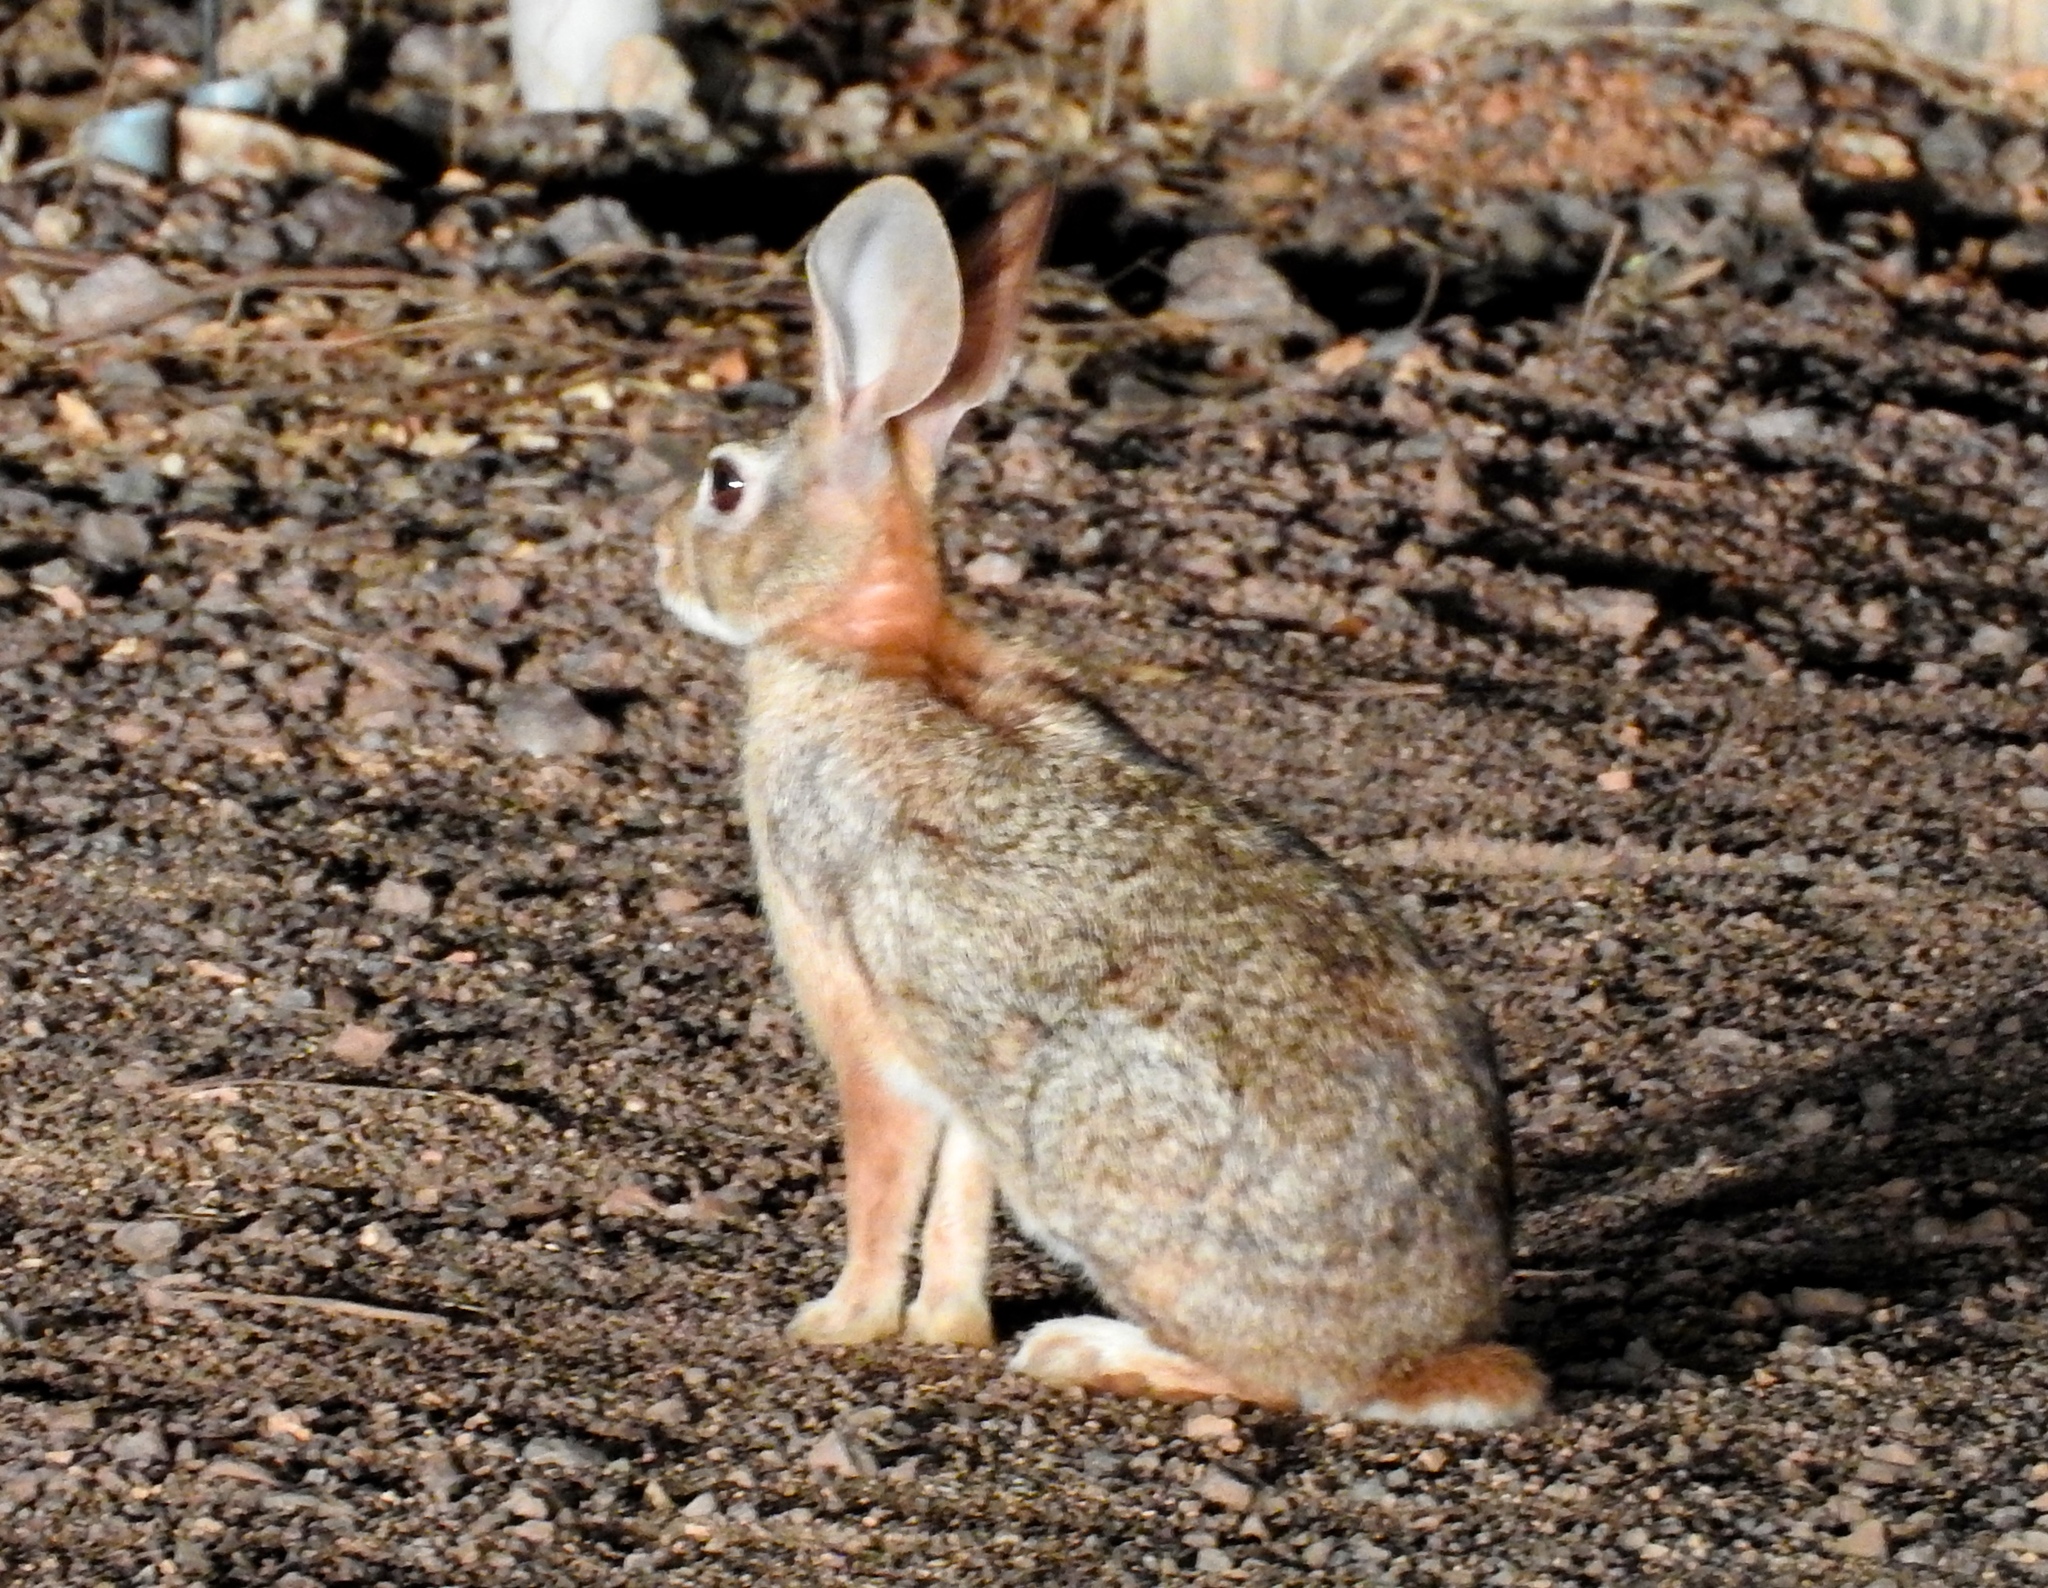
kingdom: Animalia
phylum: Chordata
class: Mammalia
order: Lagomorpha
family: Leporidae
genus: Sylvilagus
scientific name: Sylvilagus cunicularius
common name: Mexican cottontail
